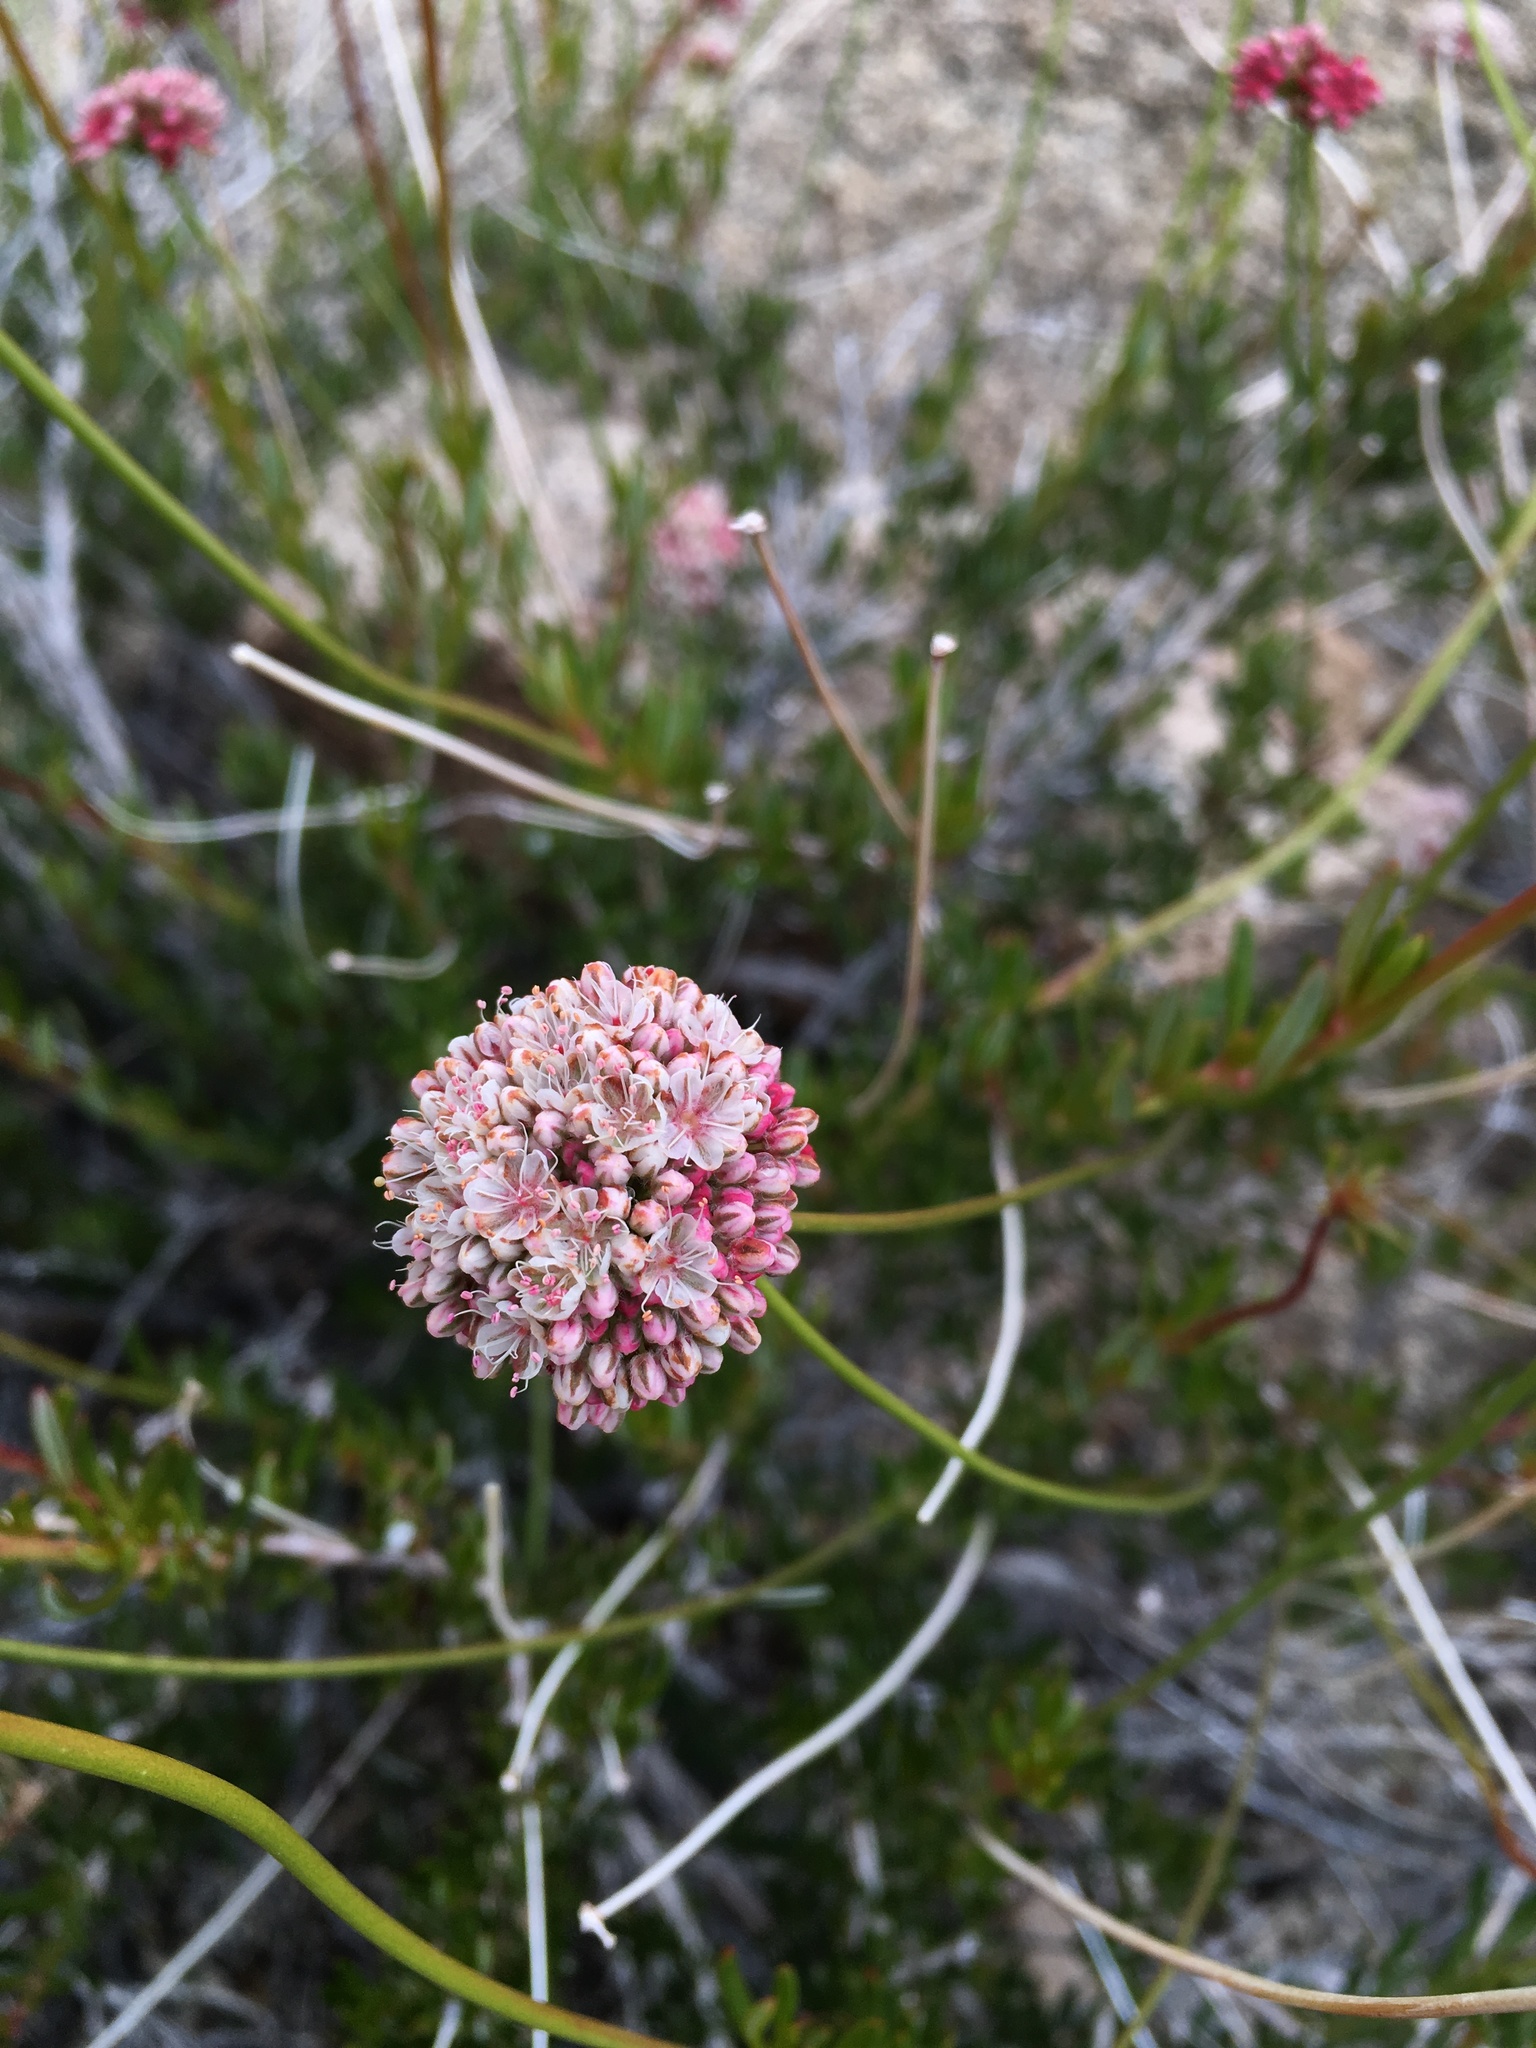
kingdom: Plantae
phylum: Tracheophyta
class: Magnoliopsida
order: Caryophyllales
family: Polygonaceae
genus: Eriogonum
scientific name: Eriogonum fasciculatum
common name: California wild buckwheat
